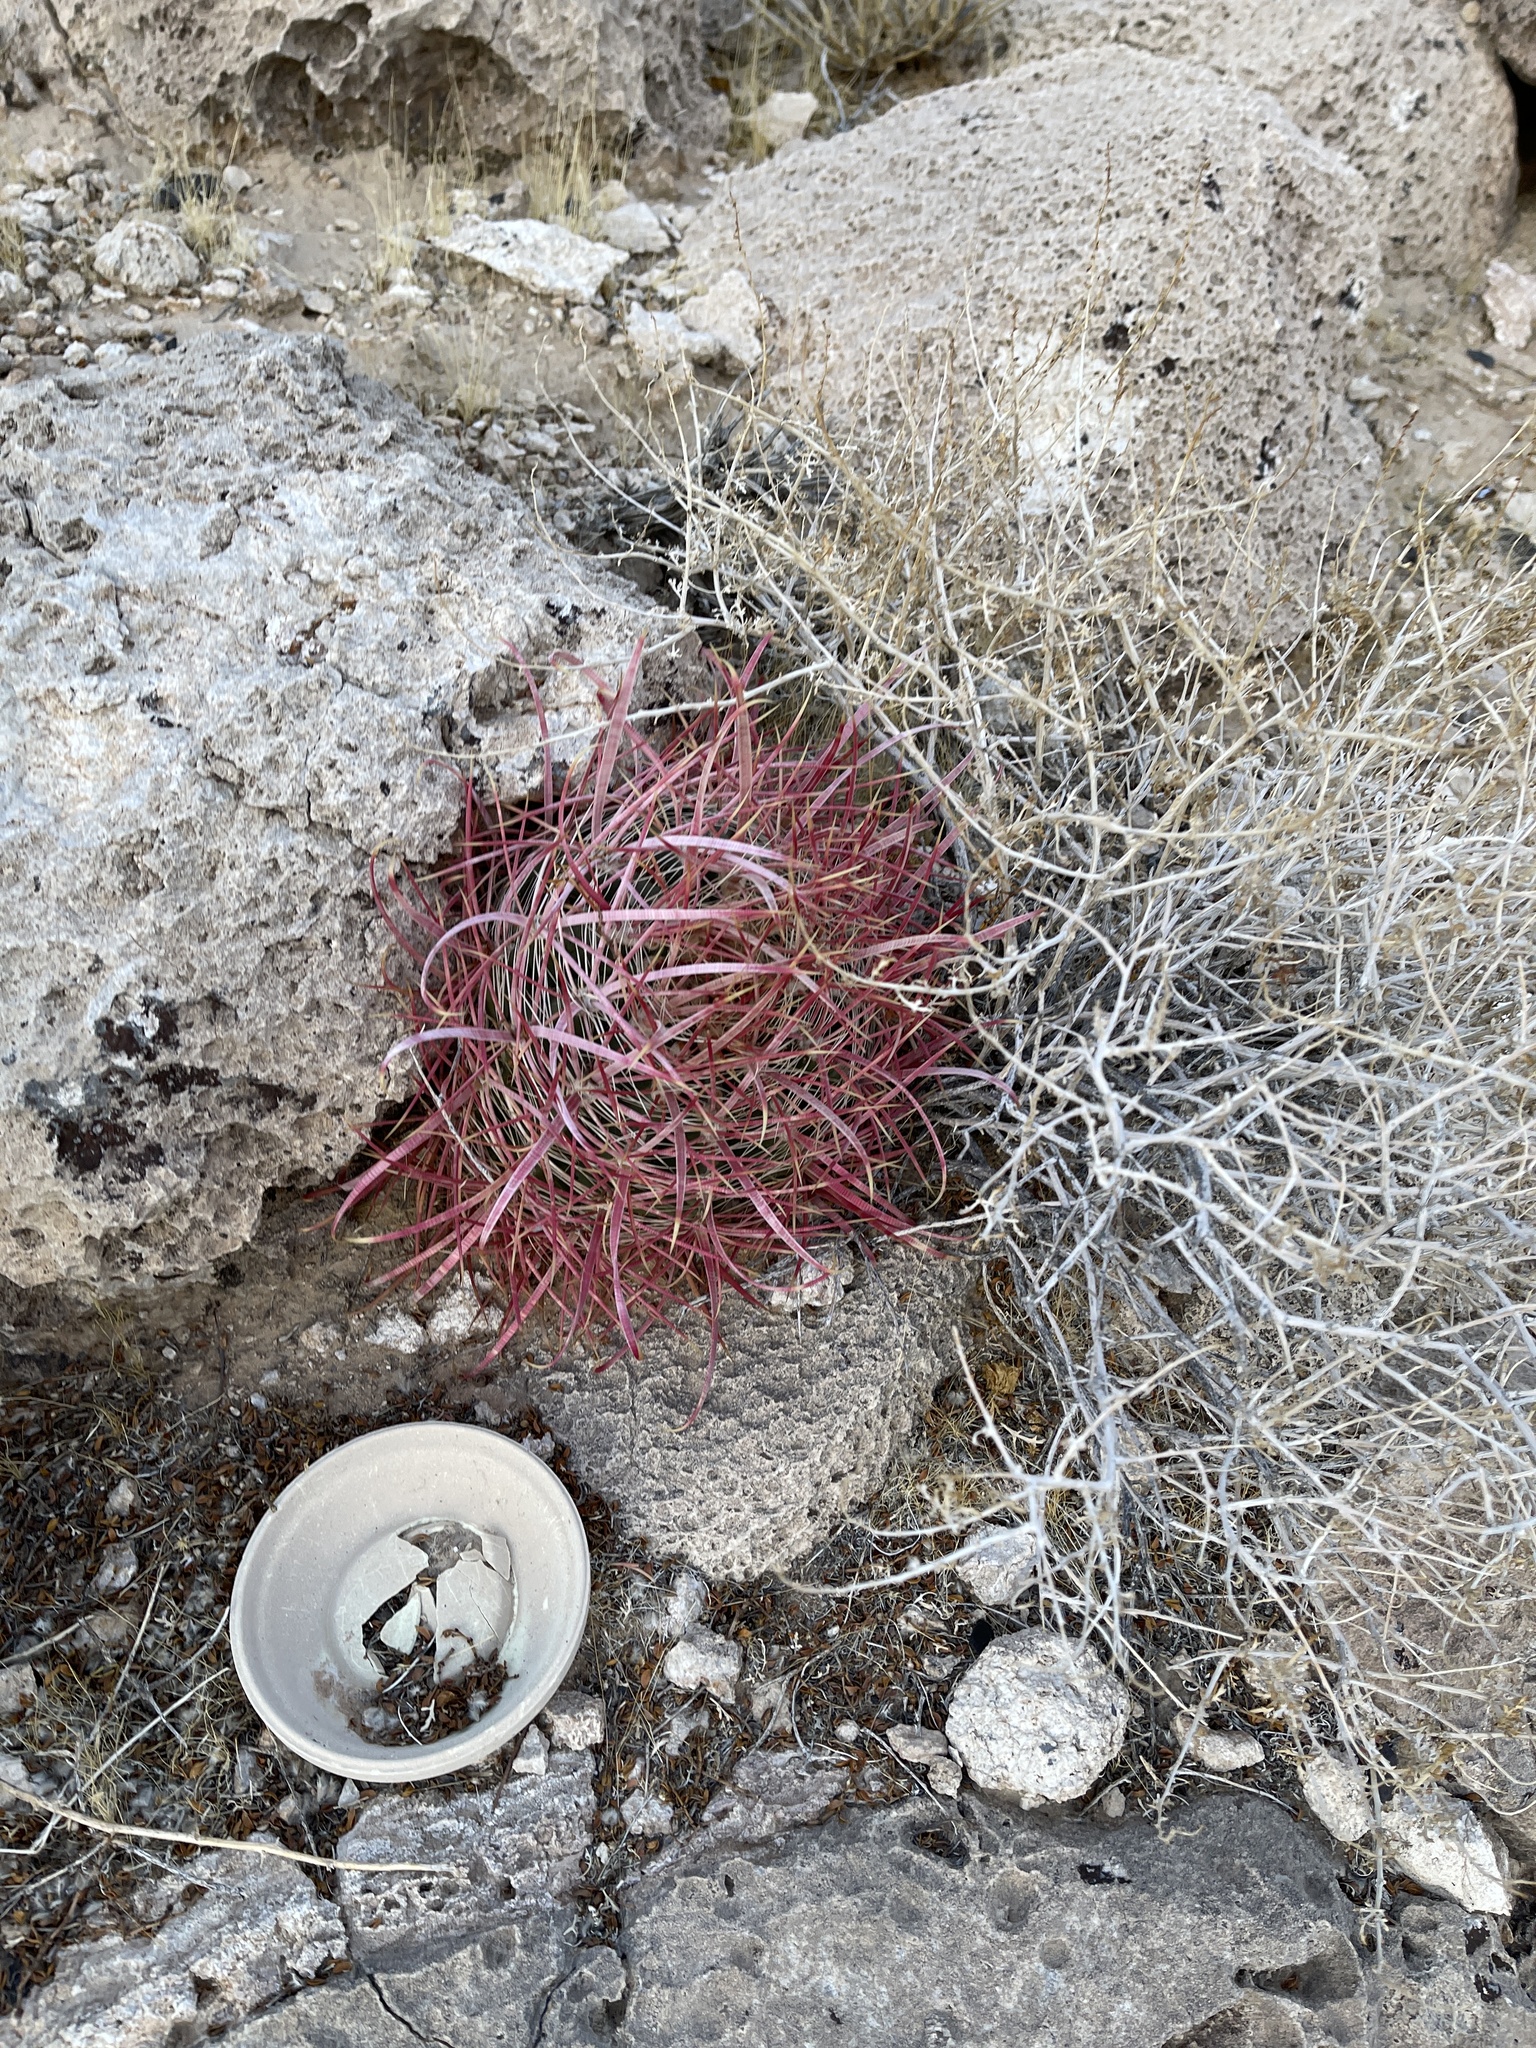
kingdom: Plantae
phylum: Tracheophyta
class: Magnoliopsida
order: Caryophyllales
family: Cactaceae
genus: Ferocactus
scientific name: Ferocactus cylindraceus
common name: California barrel cactus
